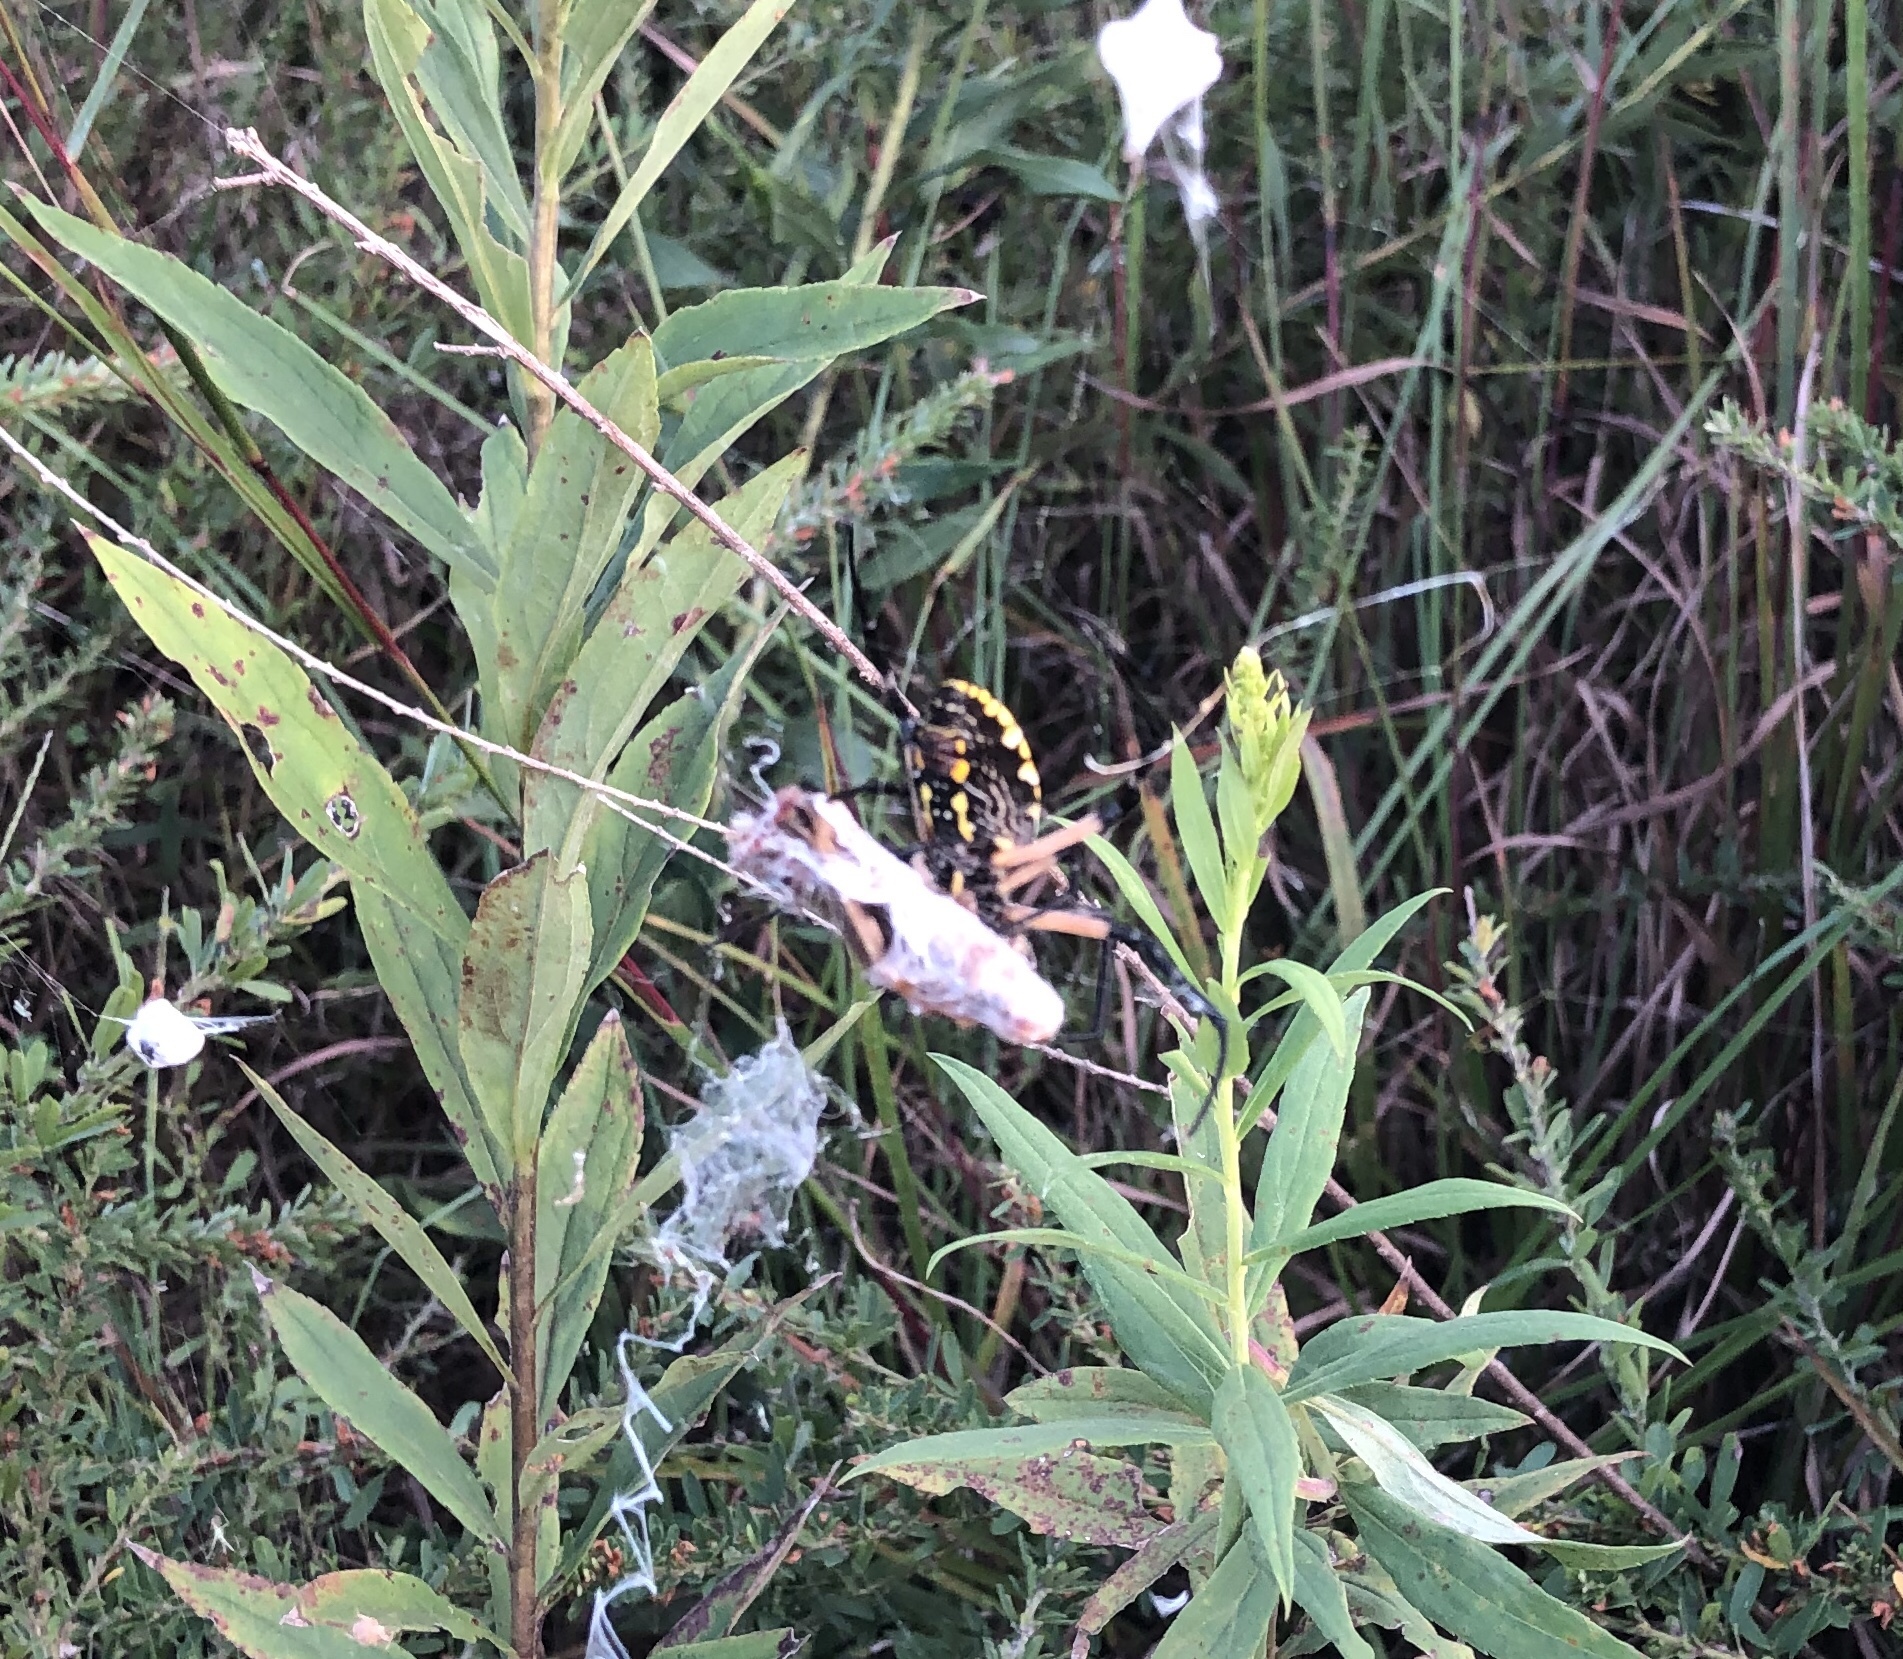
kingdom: Animalia
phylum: Arthropoda
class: Arachnida
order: Araneae
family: Araneidae
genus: Argiope
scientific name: Argiope aurantia
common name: Orb weavers
